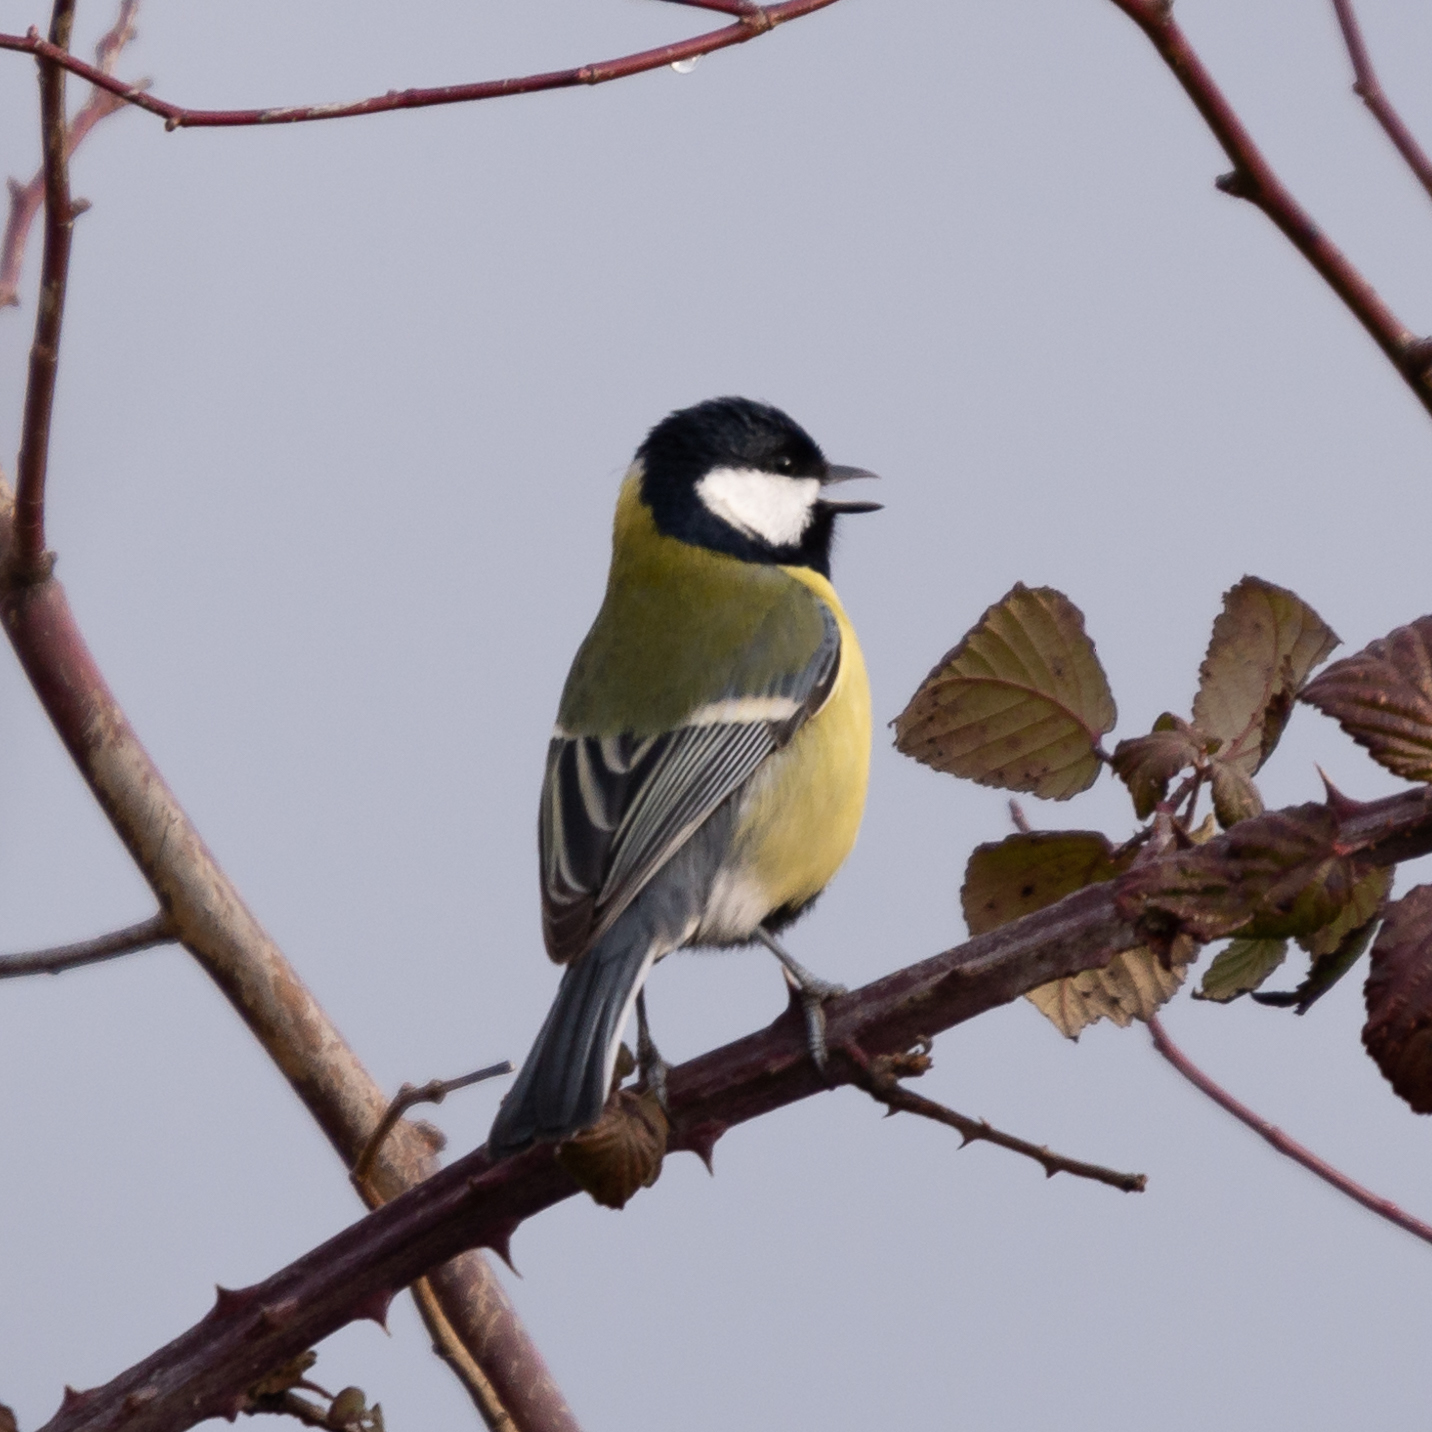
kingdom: Animalia
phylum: Chordata
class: Aves
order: Passeriformes
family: Paridae
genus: Parus
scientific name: Parus major
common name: Great tit
